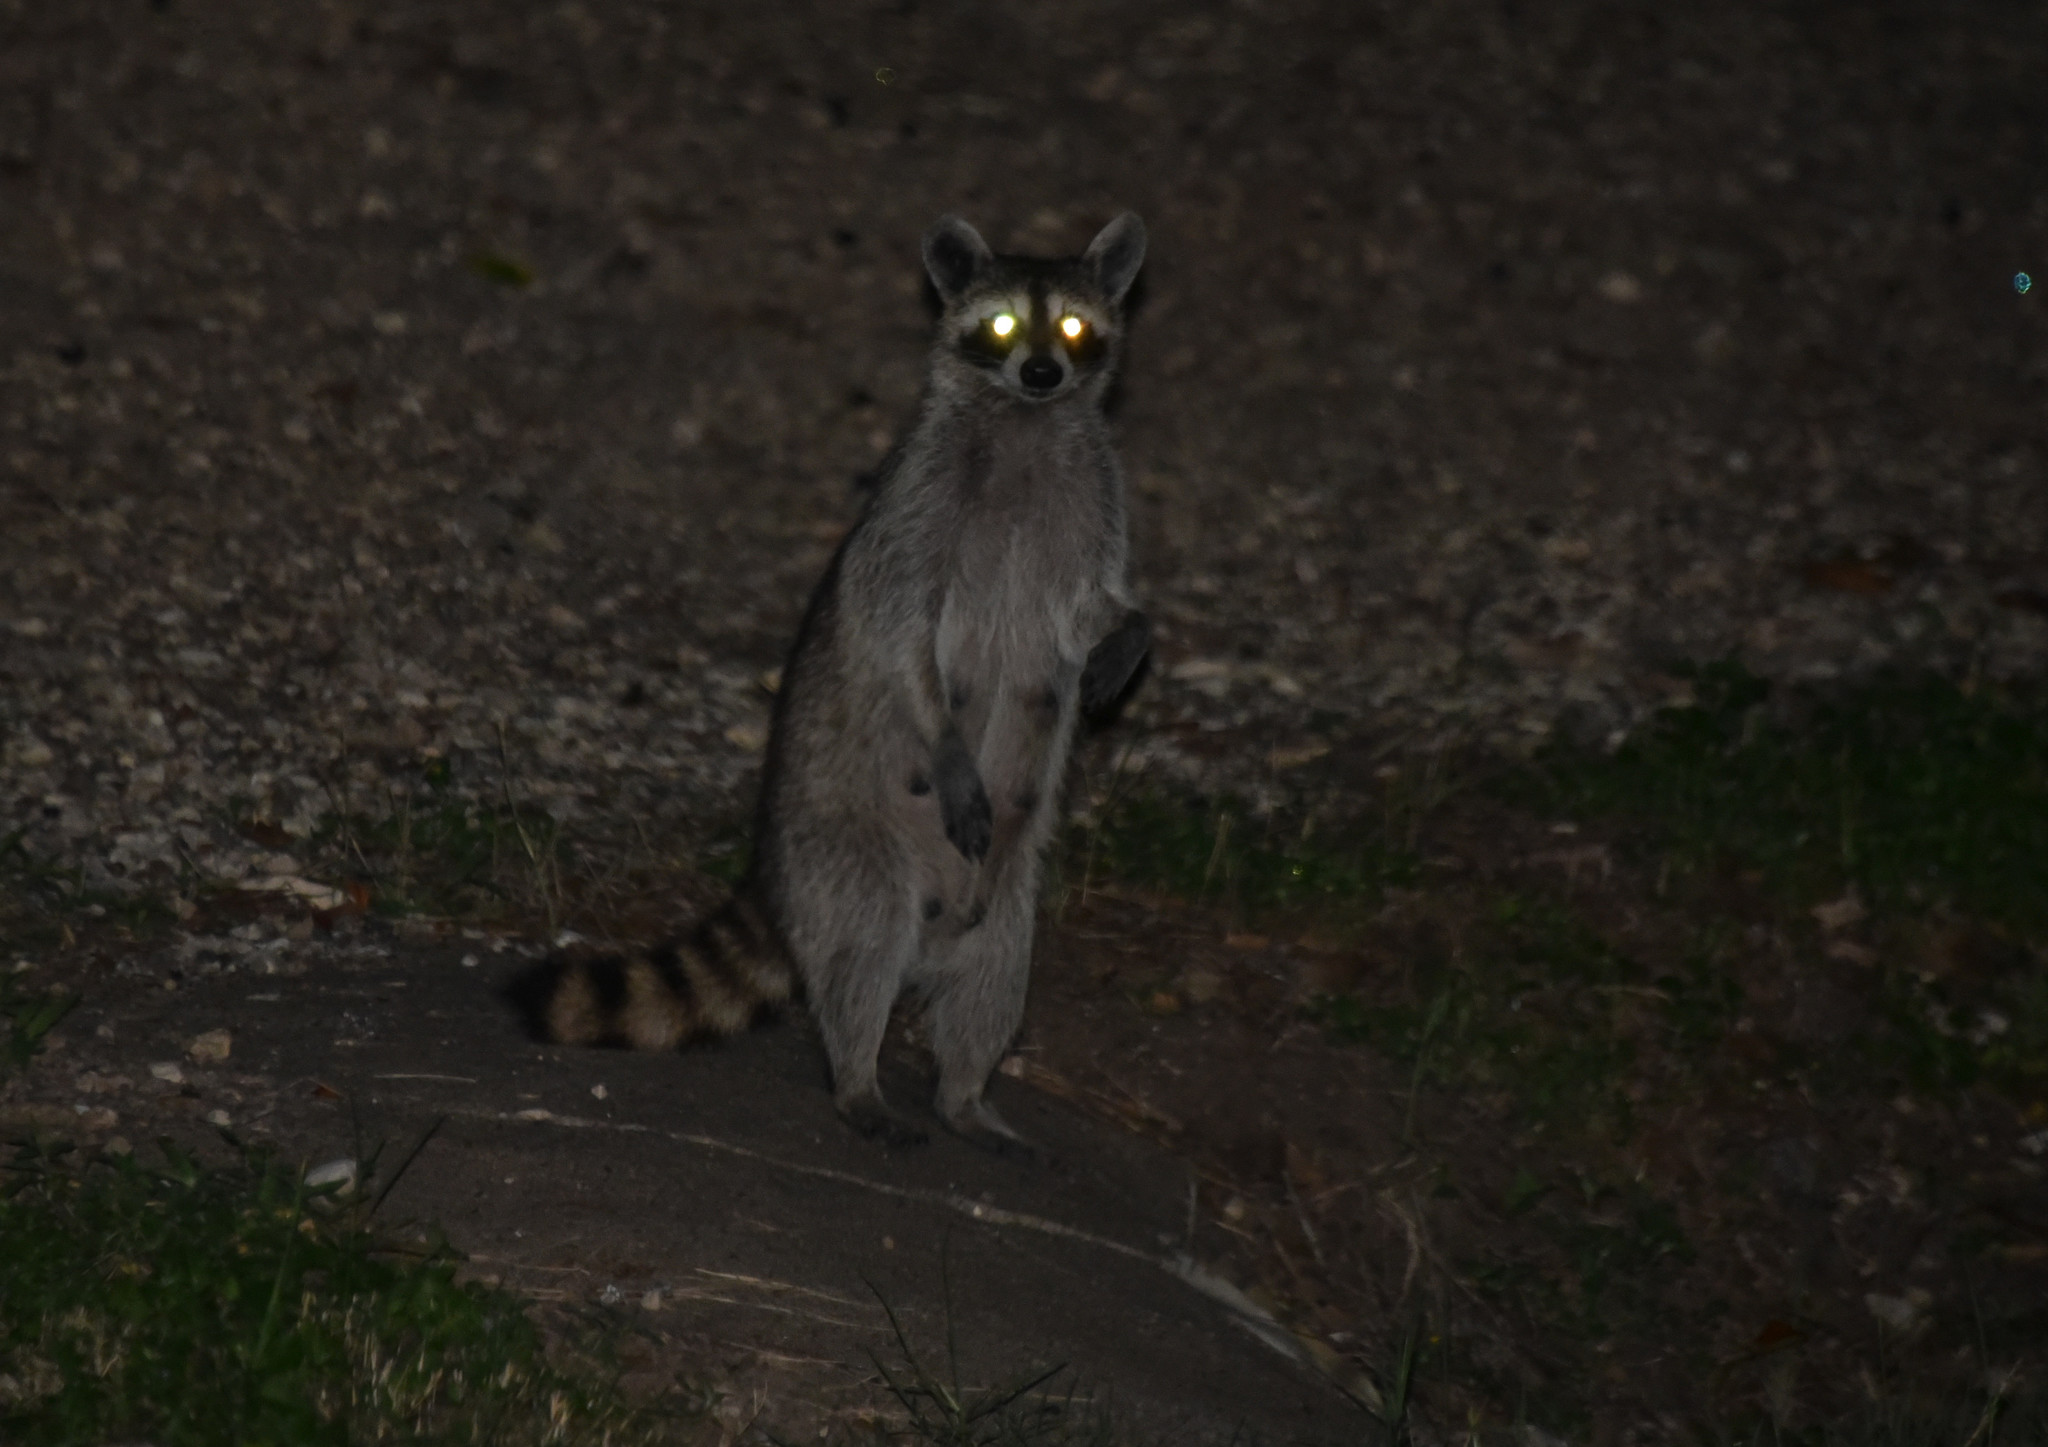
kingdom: Animalia
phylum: Chordata
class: Mammalia
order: Carnivora
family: Procyonidae
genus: Procyon
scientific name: Procyon lotor
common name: Raccoon
